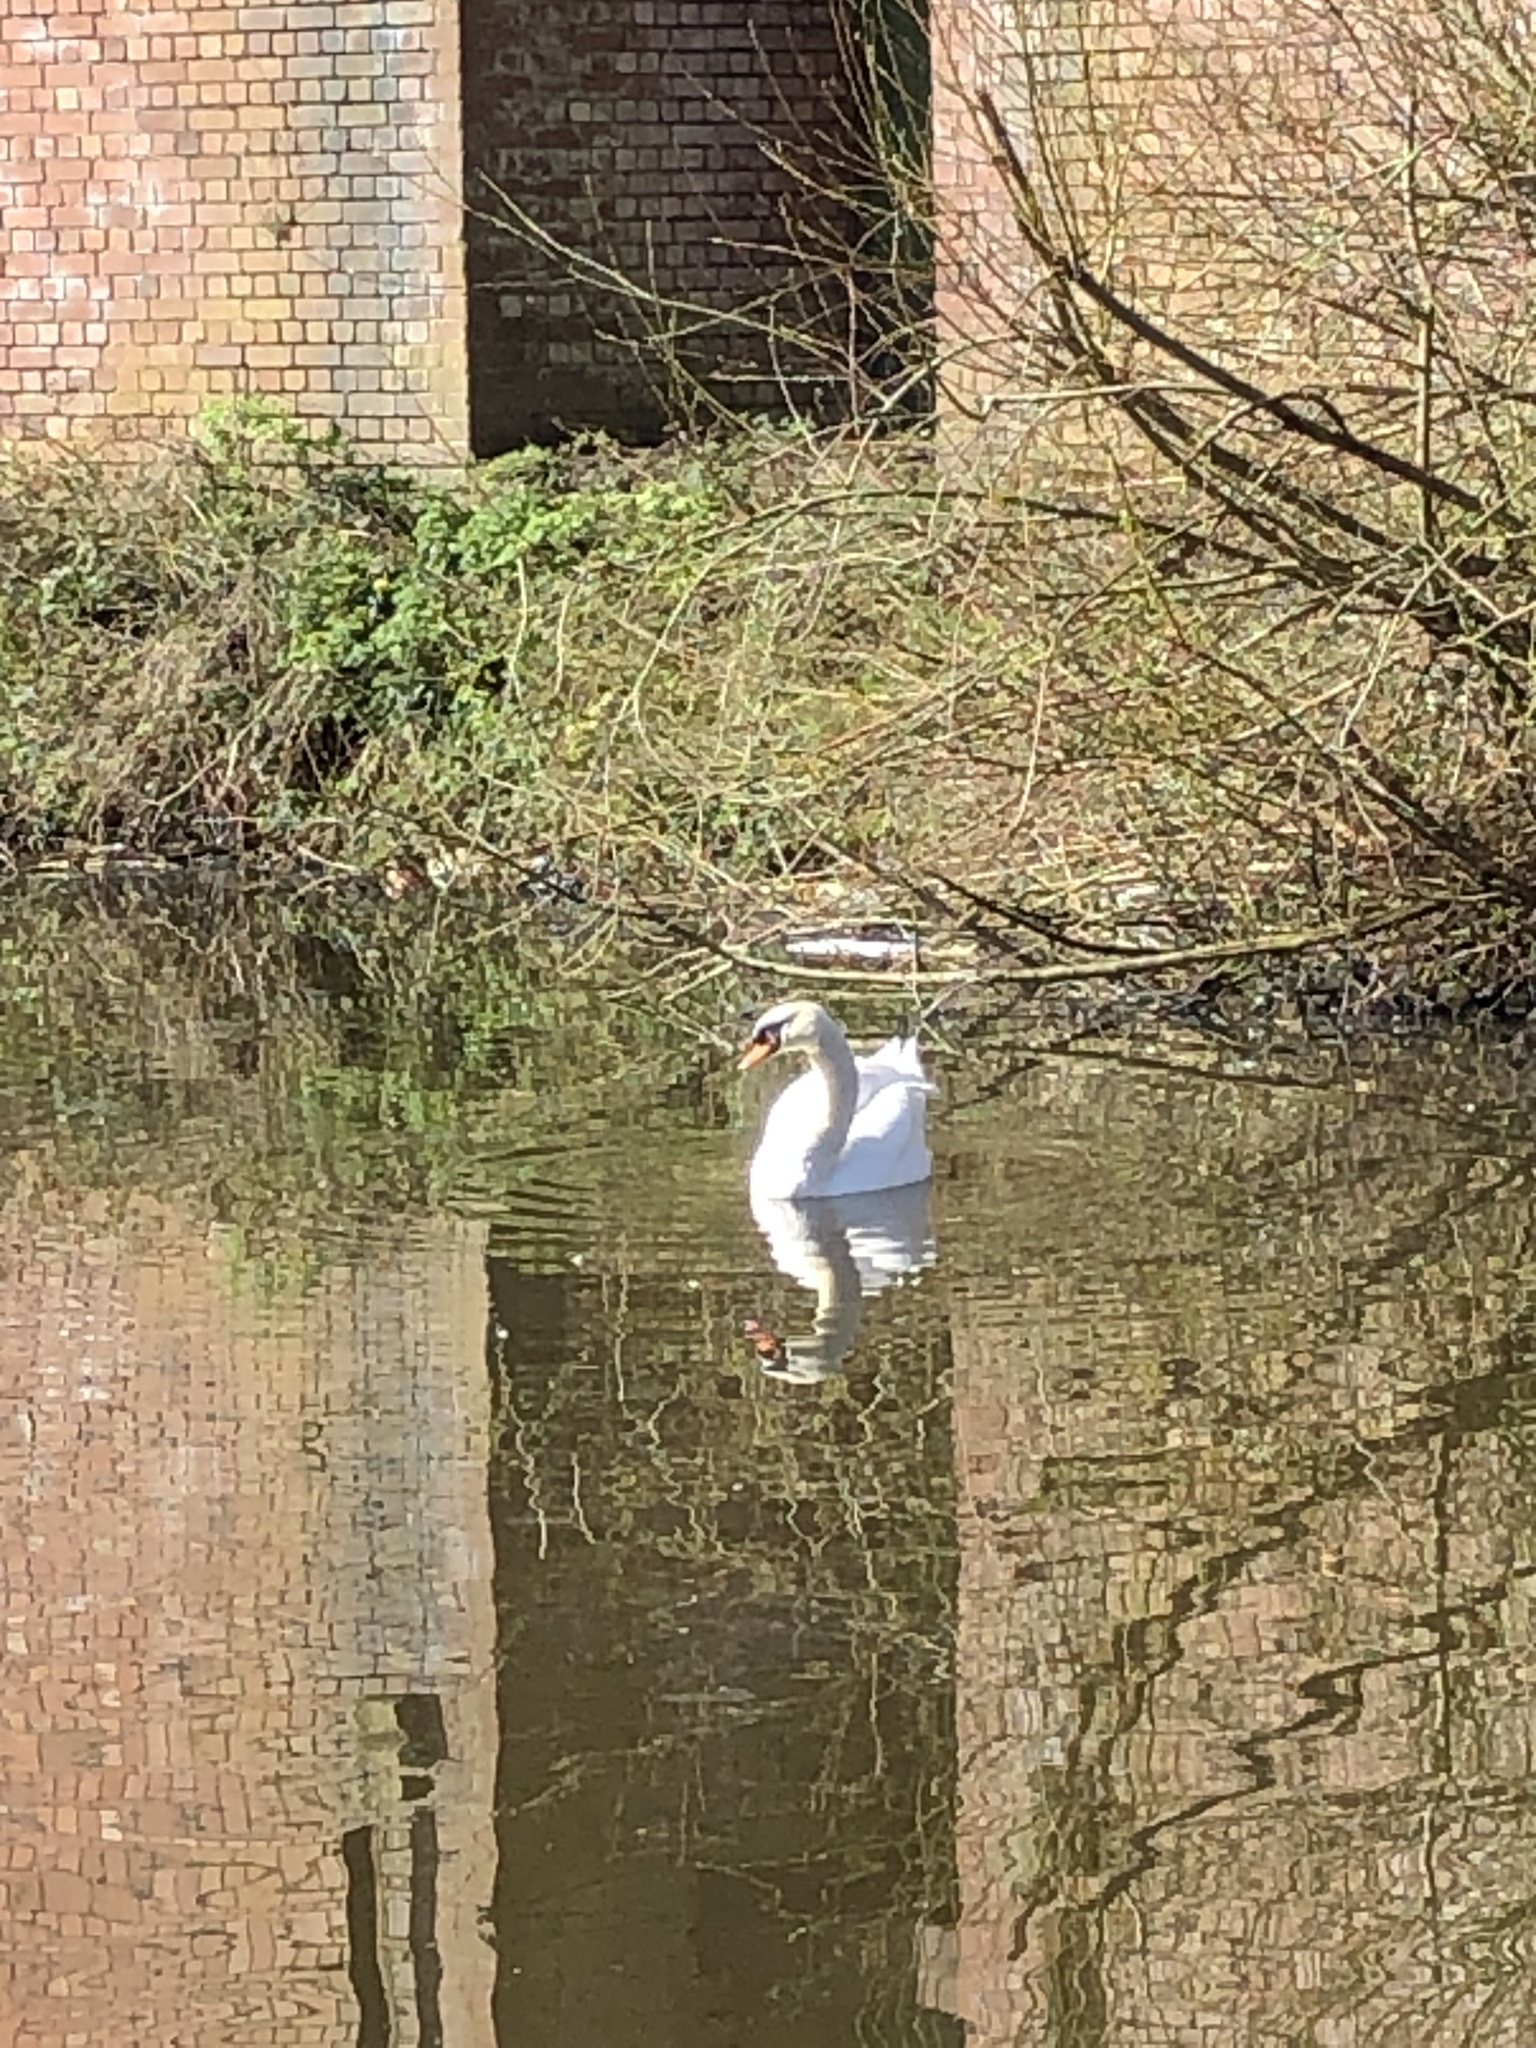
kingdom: Animalia
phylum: Chordata
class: Aves
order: Anseriformes
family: Anatidae
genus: Cygnus
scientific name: Cygnus olor
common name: Mute swan
